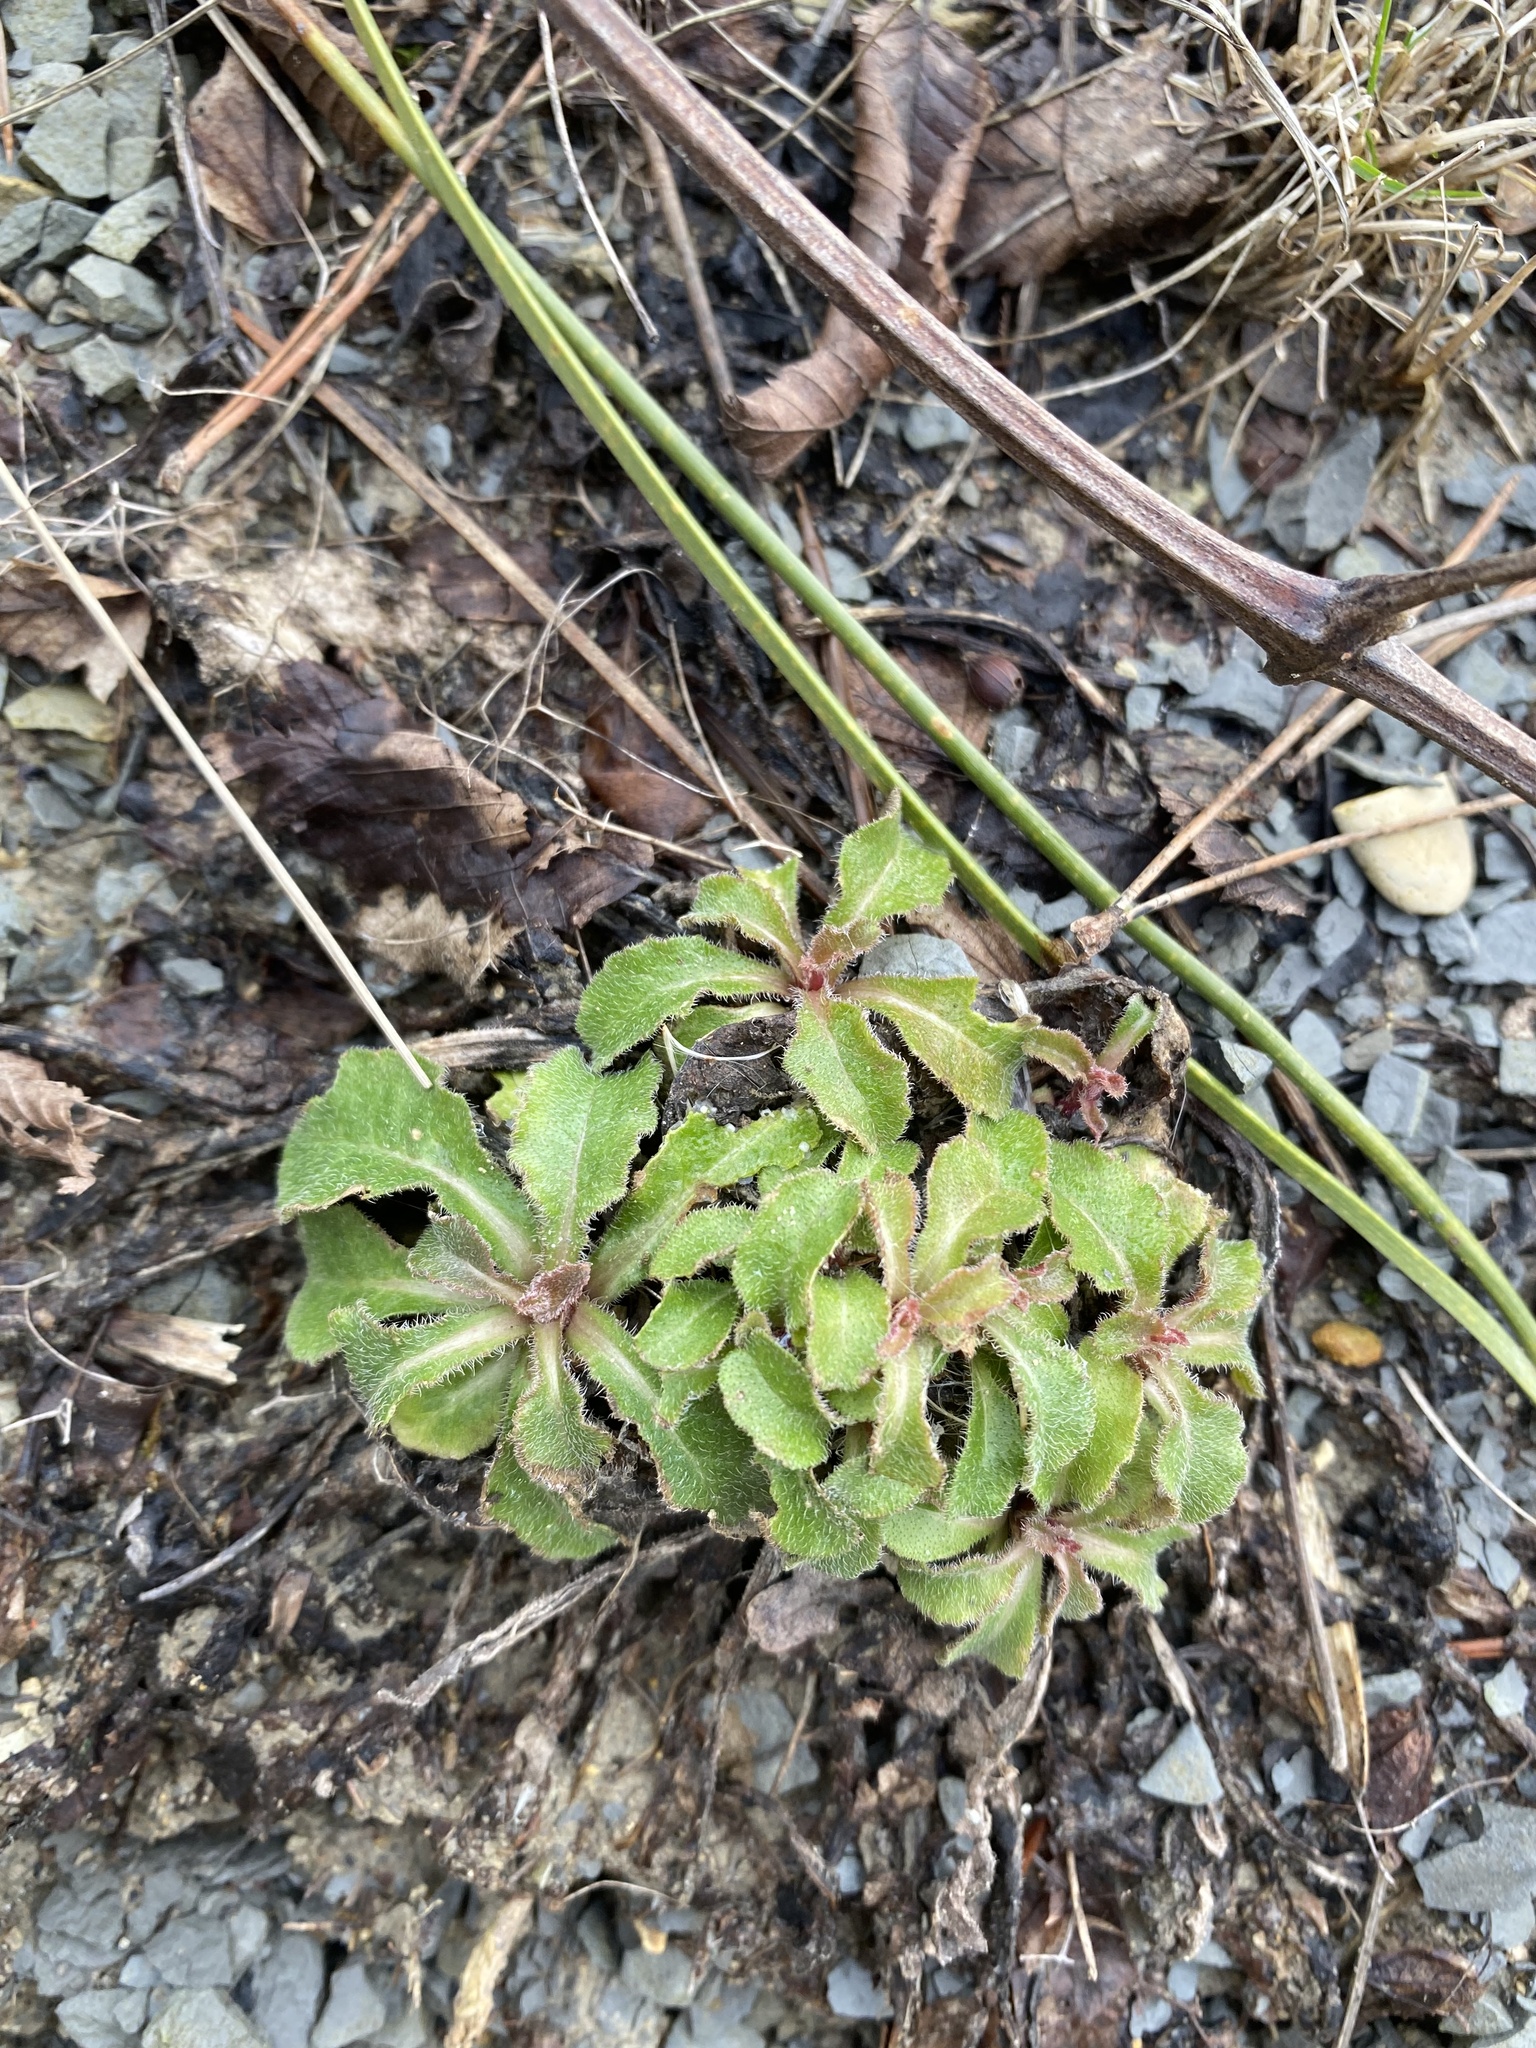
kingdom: Plantae
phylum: Tracheophyta
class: Magnoliopsida
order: Asterales
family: Campanulaceae
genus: Campanula
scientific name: Campanula komarovii
